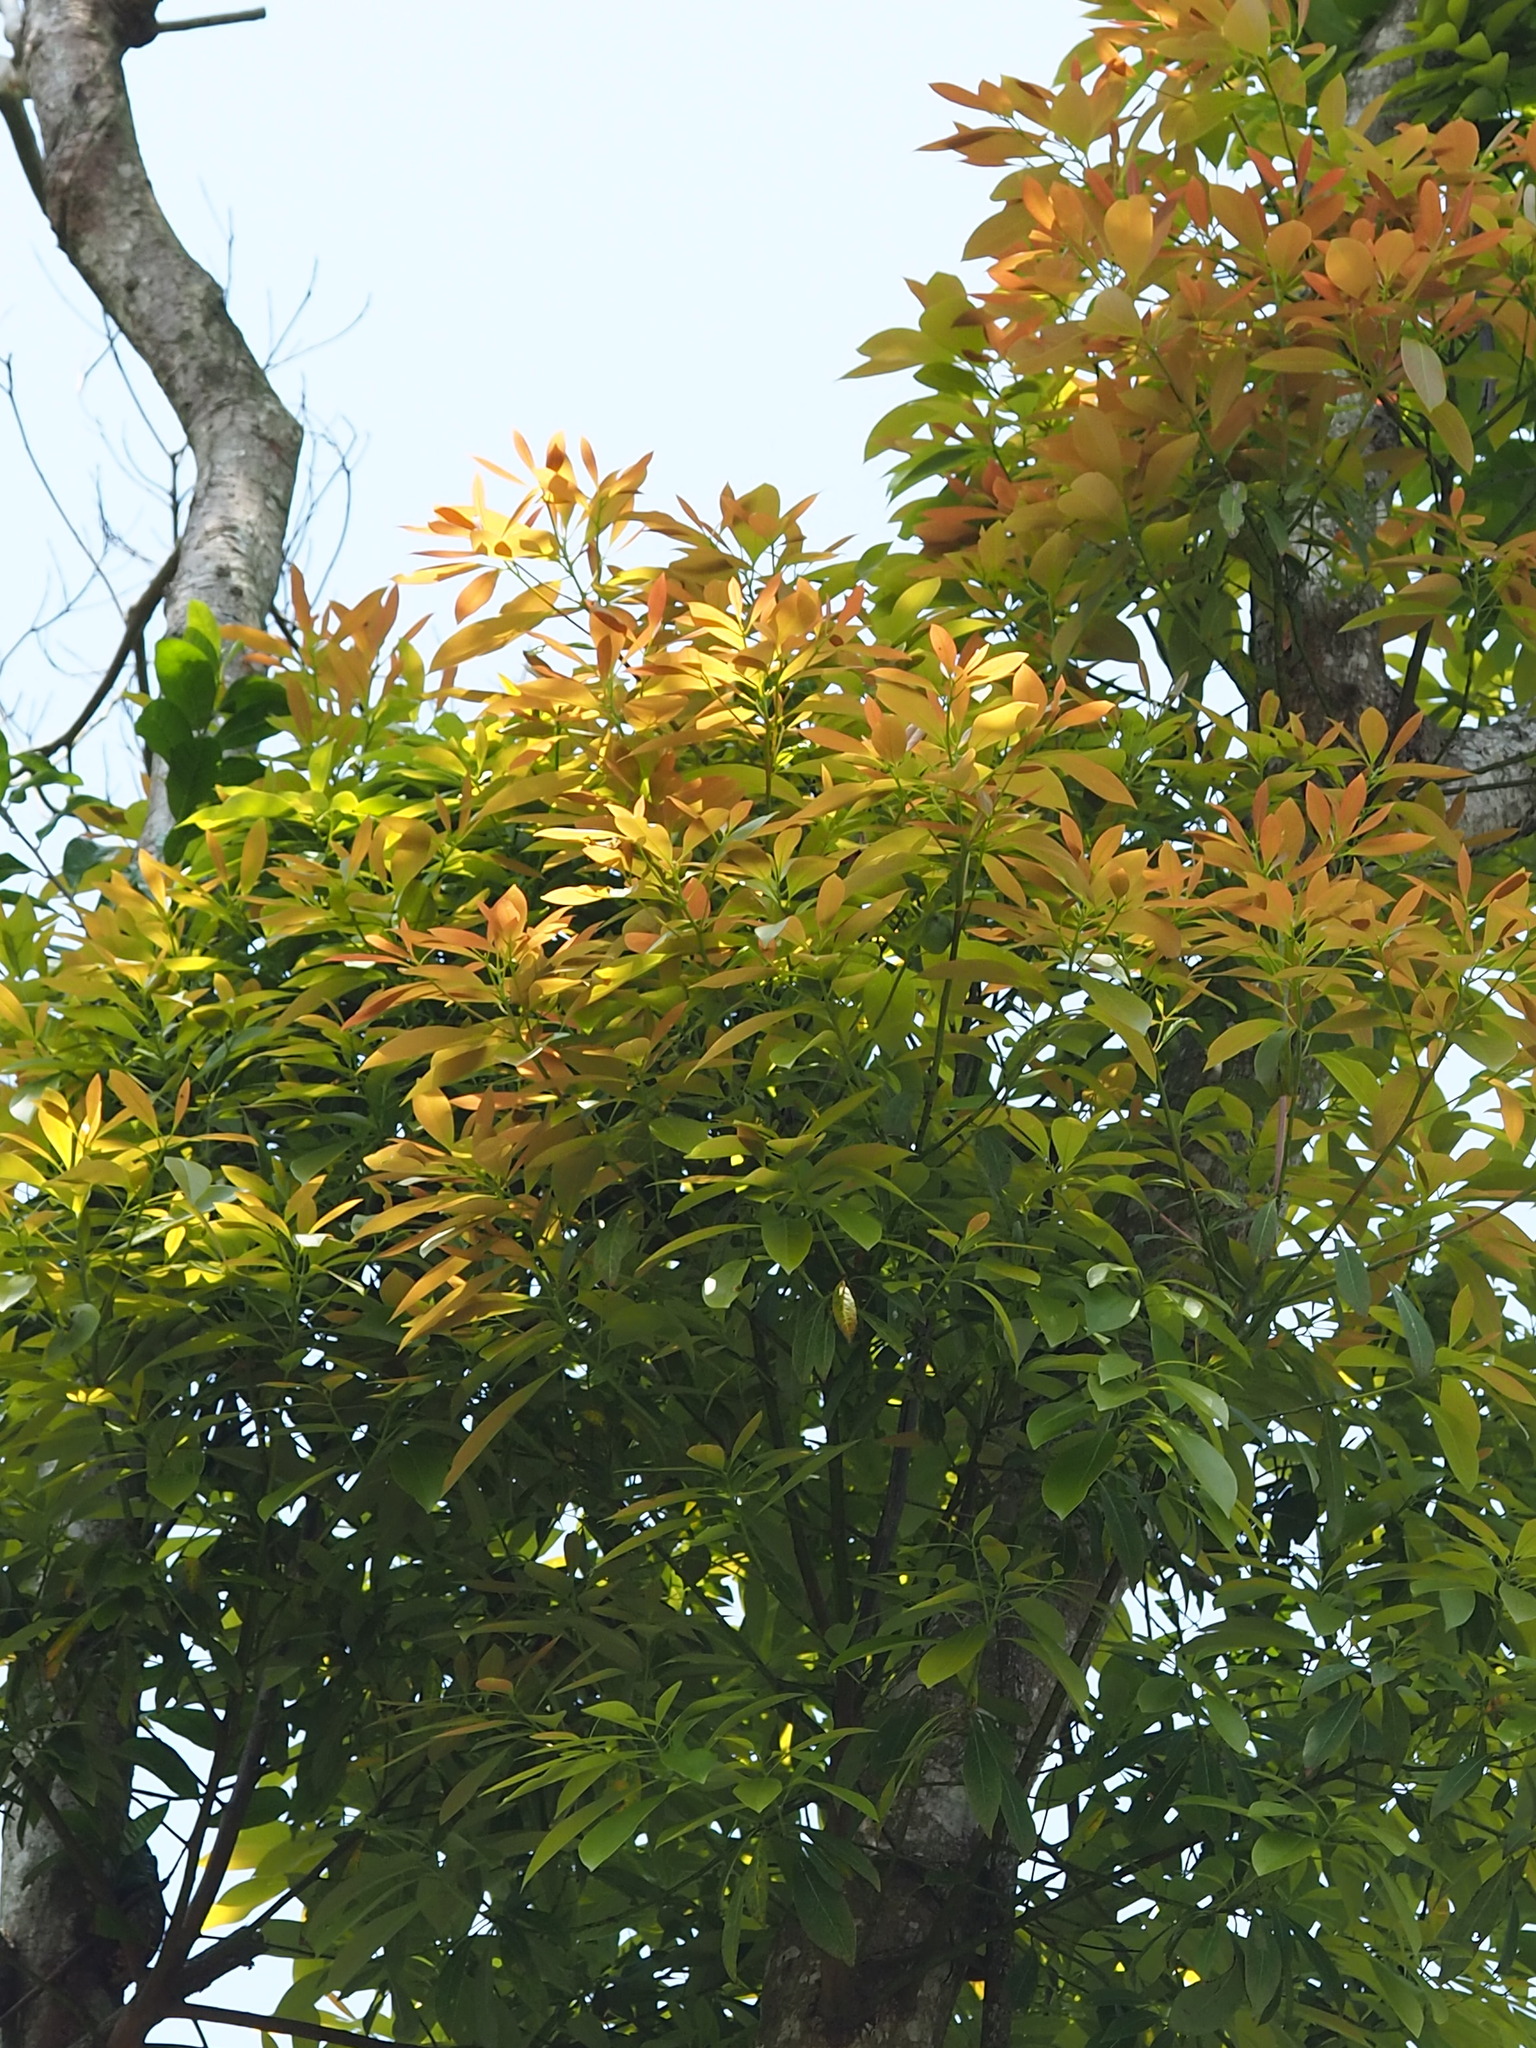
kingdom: Plantae
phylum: Tracheophyta
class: Magnoliopsida
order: Laurales
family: Lauraceae
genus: Machilus
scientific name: Machilus zuihoensis
